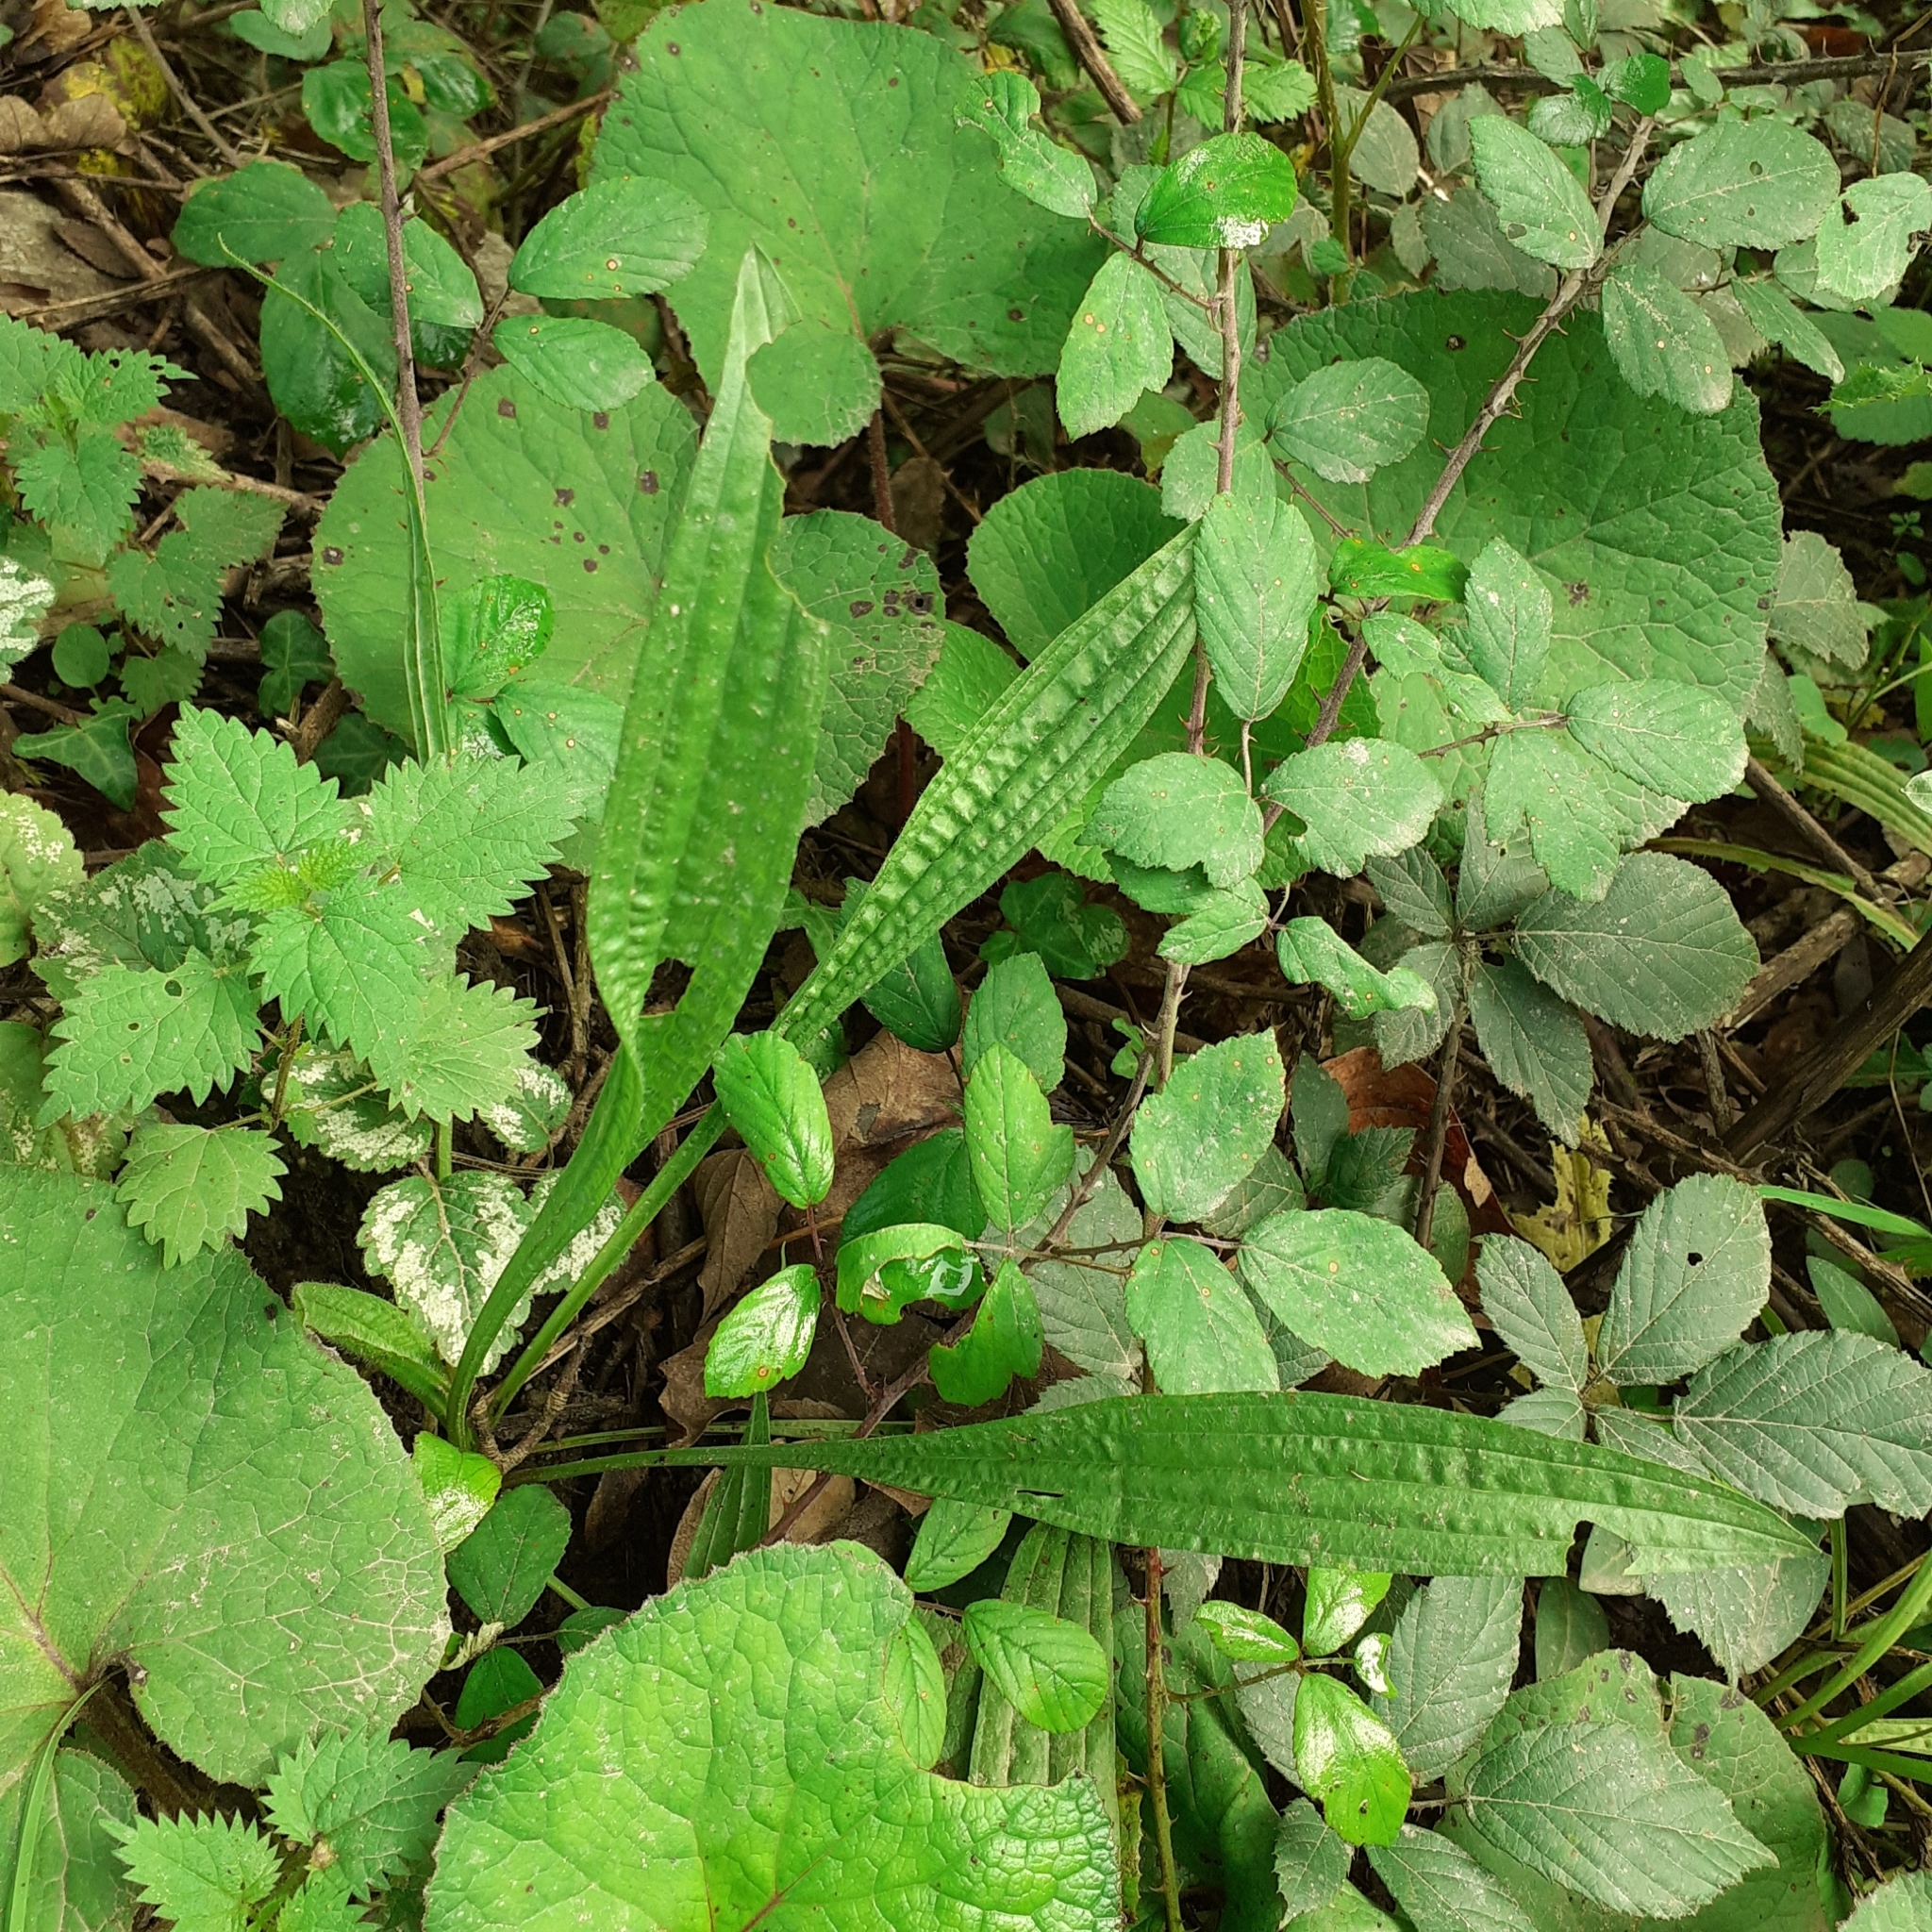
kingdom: Plantae
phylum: Tracheophyta
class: Magnoliopsida
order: Lamiales
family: Plantaginaceae
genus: Plantago
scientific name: Plantago lanceolata
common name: Ribwort plantain
